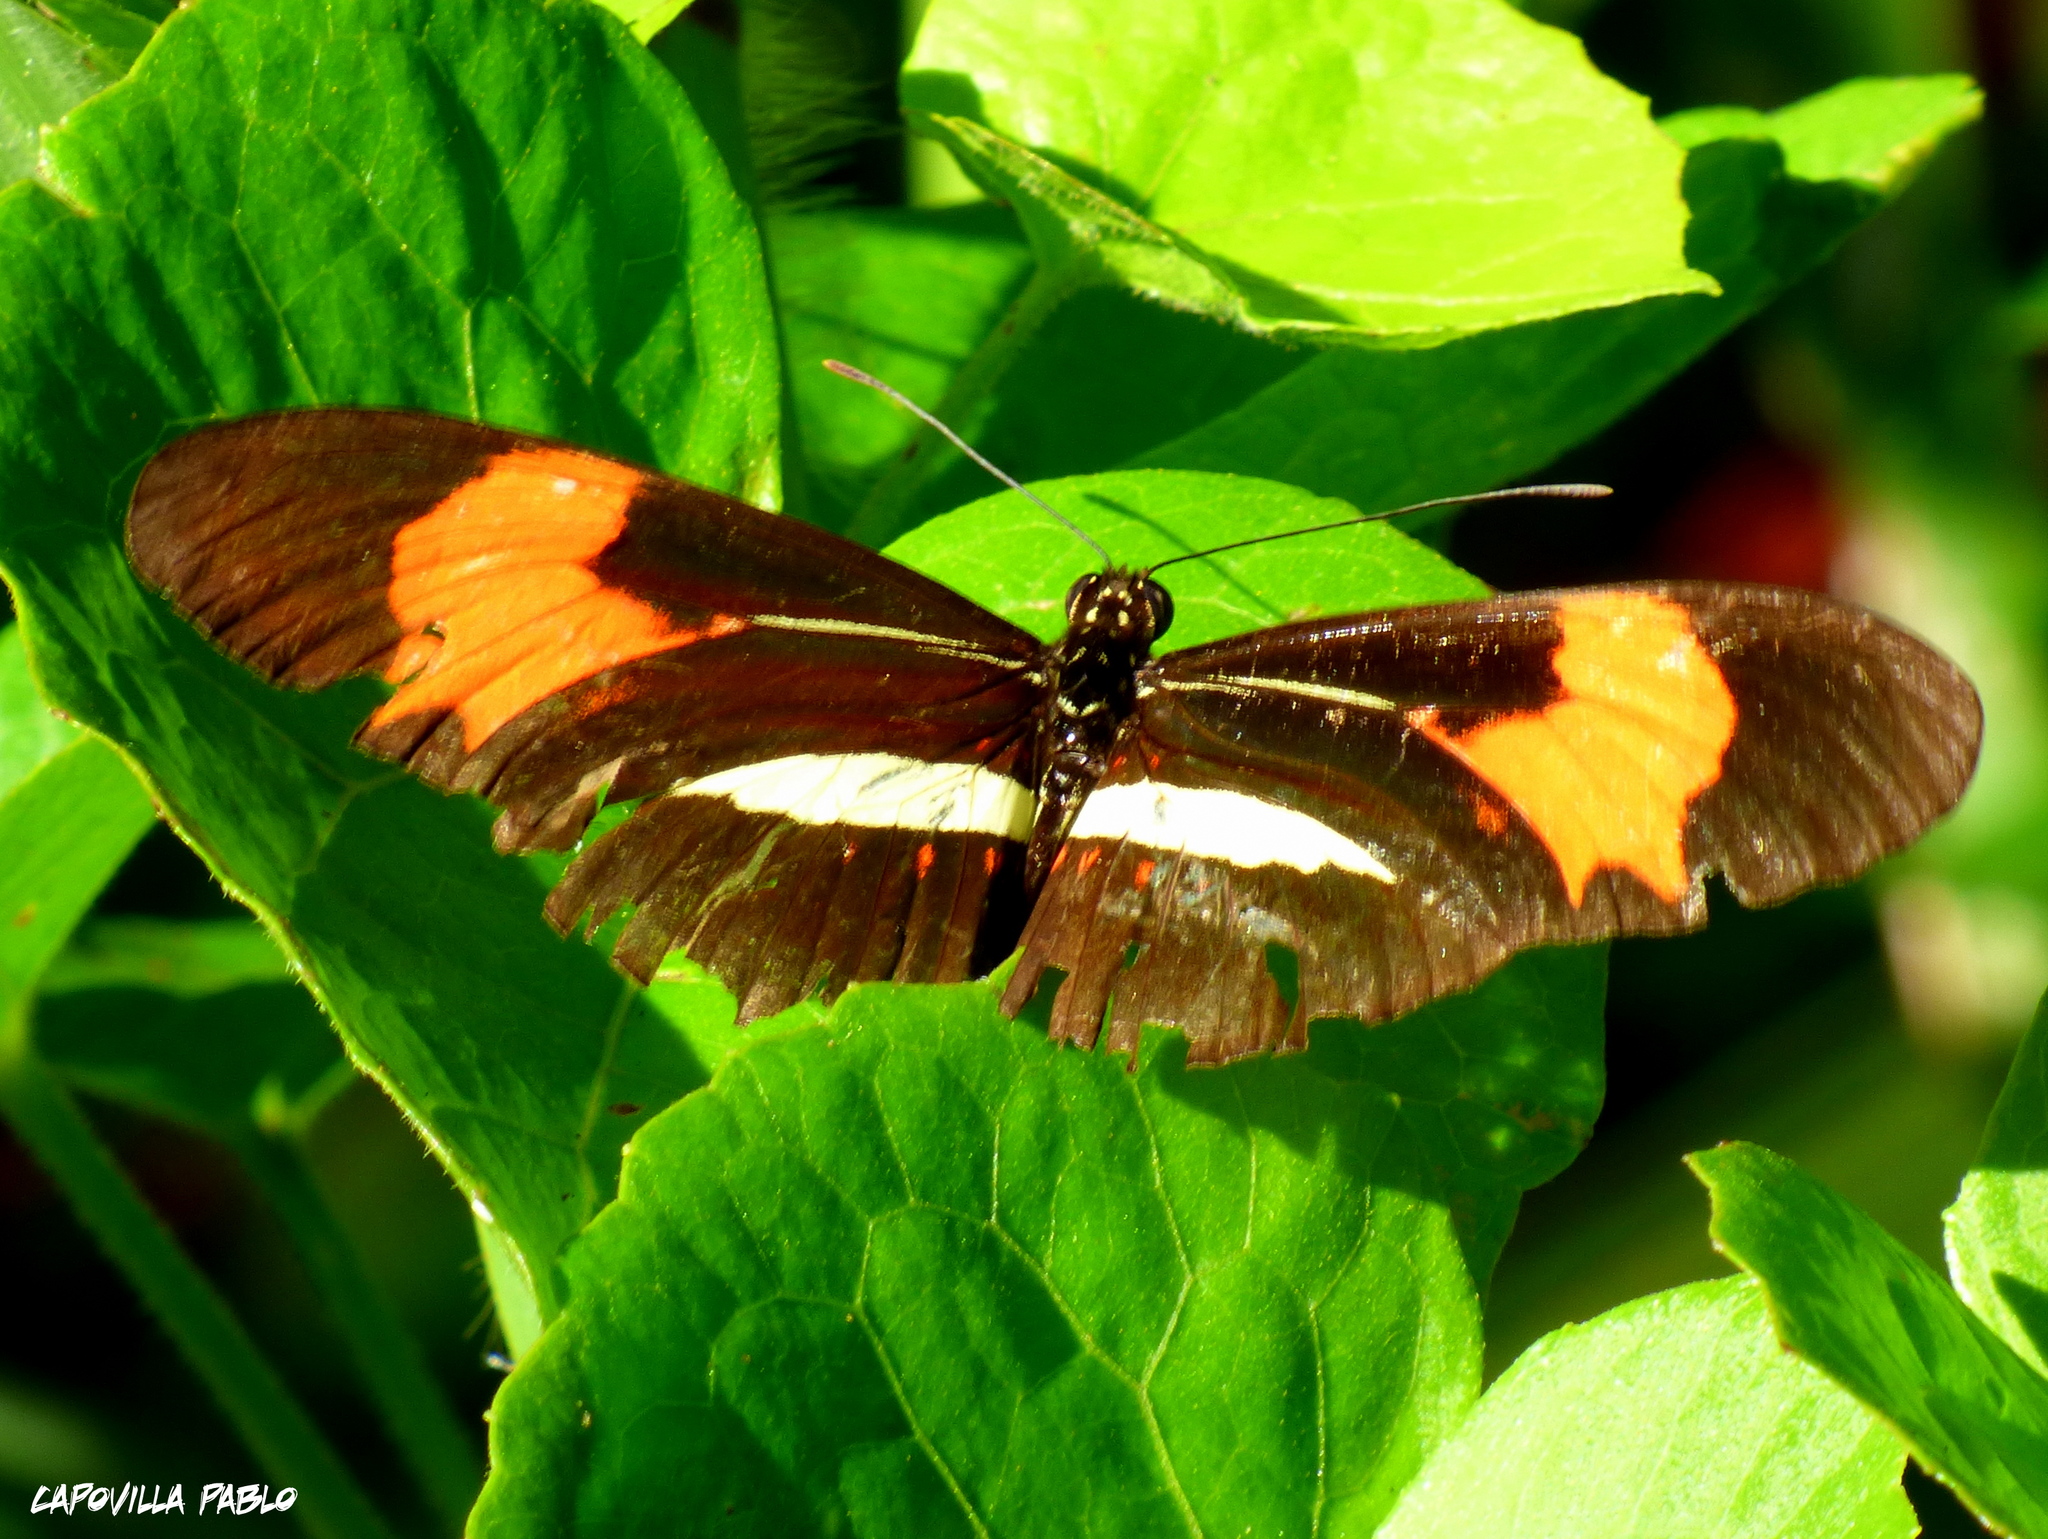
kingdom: Animalia
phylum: Arthropoda
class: Insecta
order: Lepidoptera
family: Nymphalidae
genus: Heliconius
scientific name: Heliconius erato
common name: Common patch longwing
